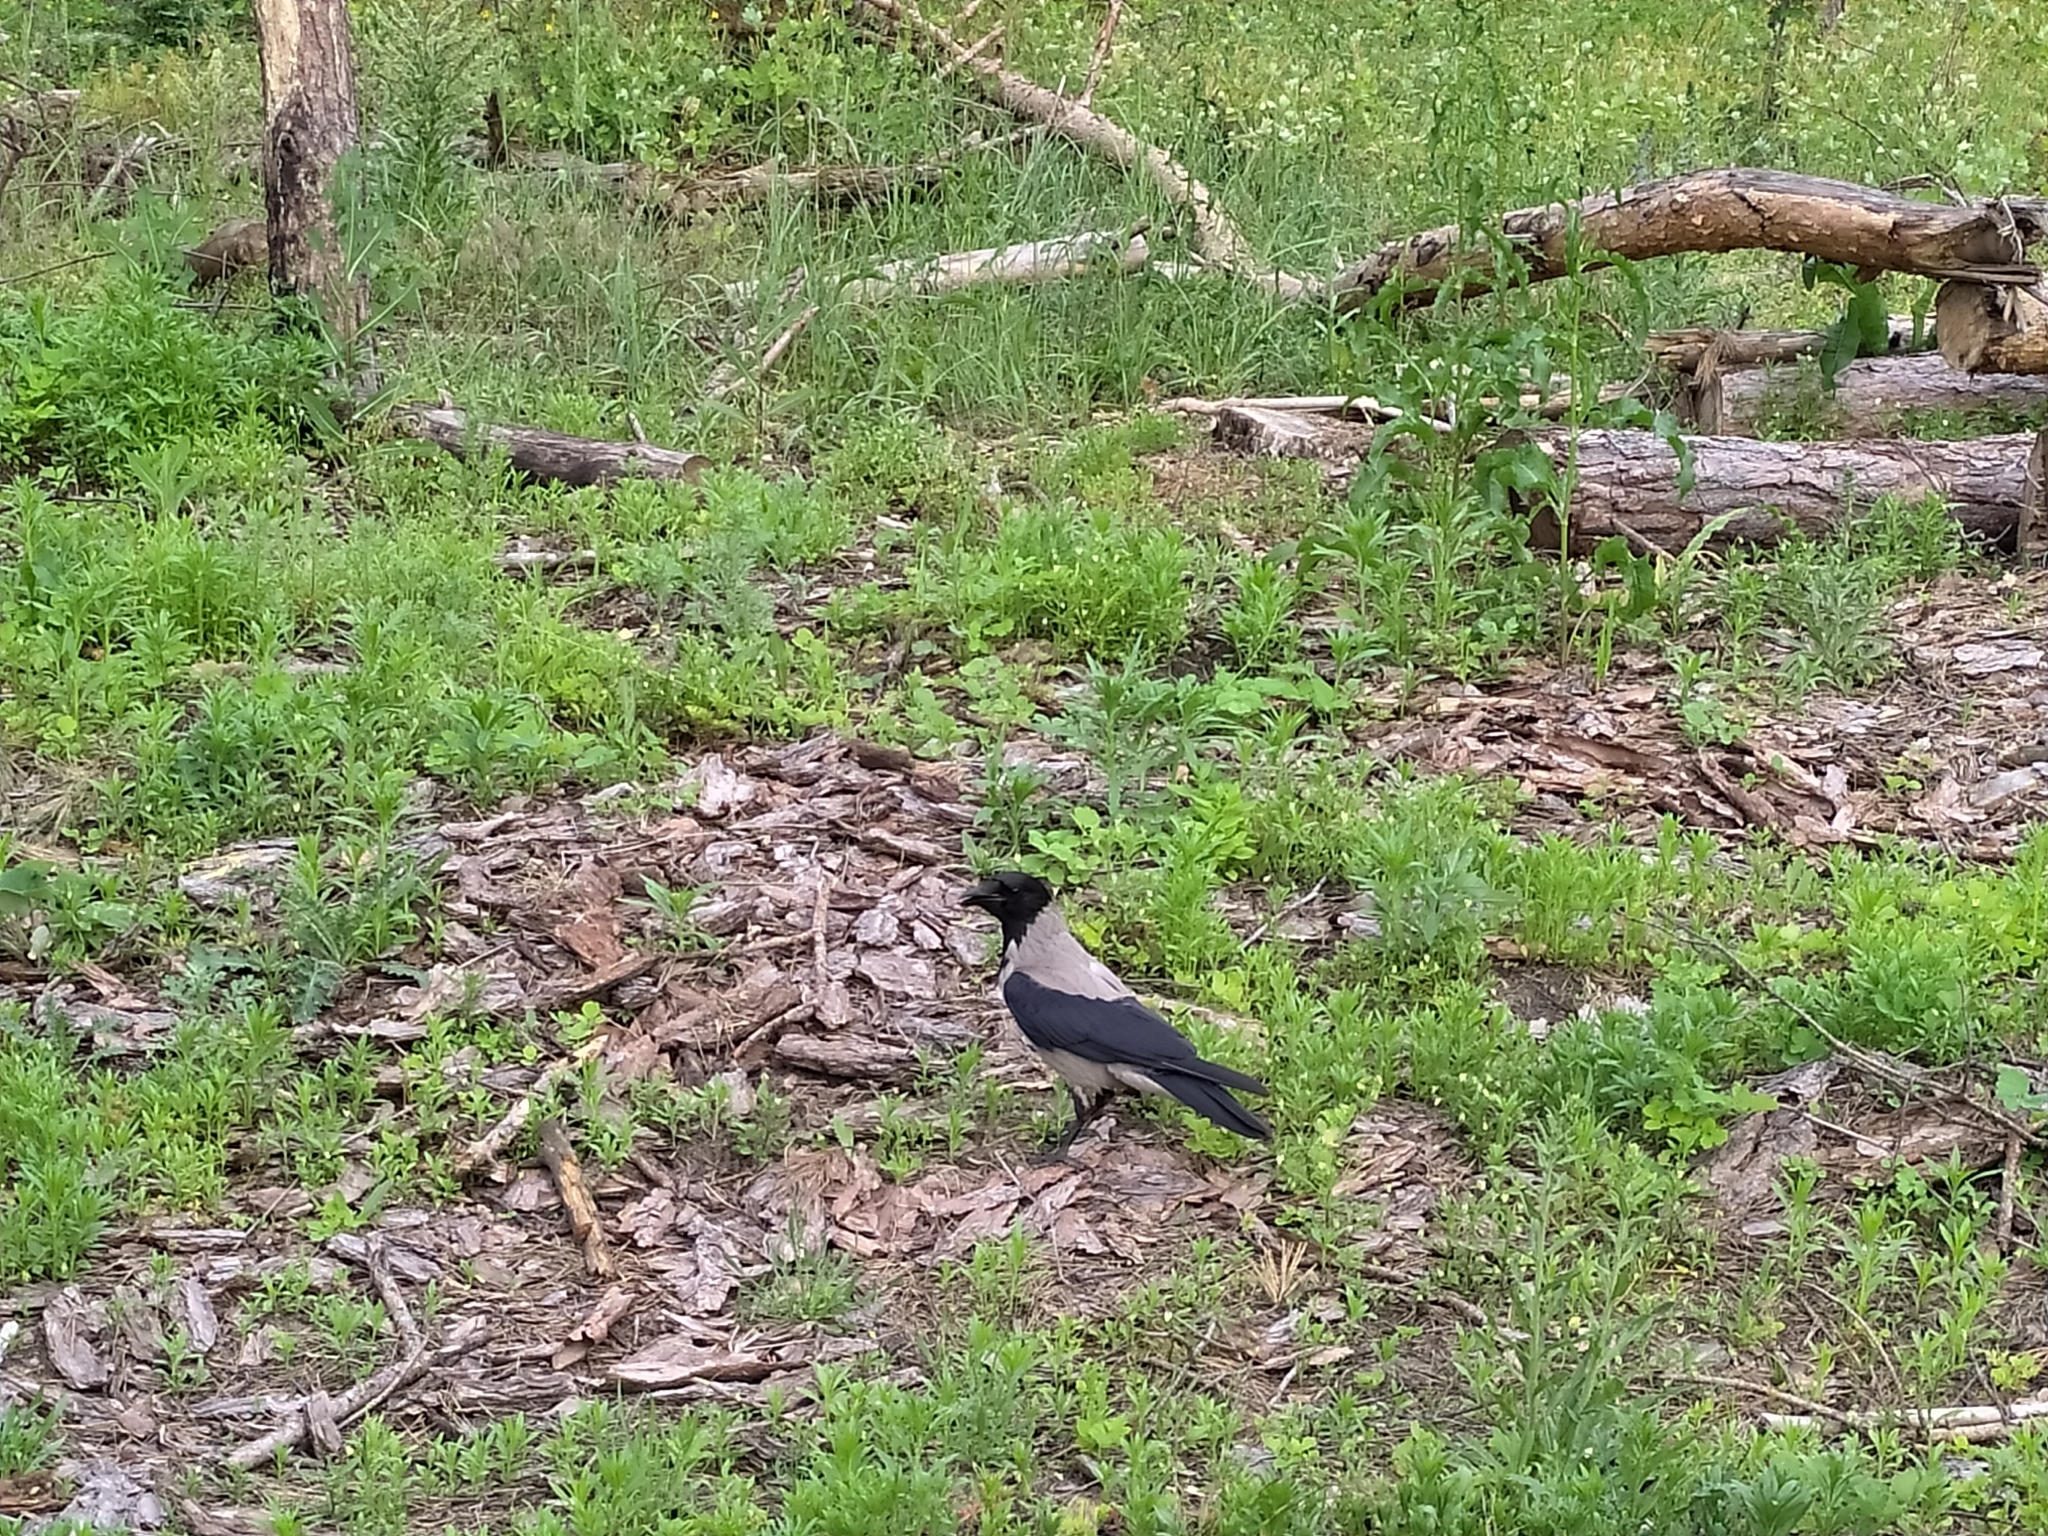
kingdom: Animalia
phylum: Chordata
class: Aves
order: Passeriformes
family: Corvidae
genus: Corvus
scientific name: Corvus cornix
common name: Hooded crow
